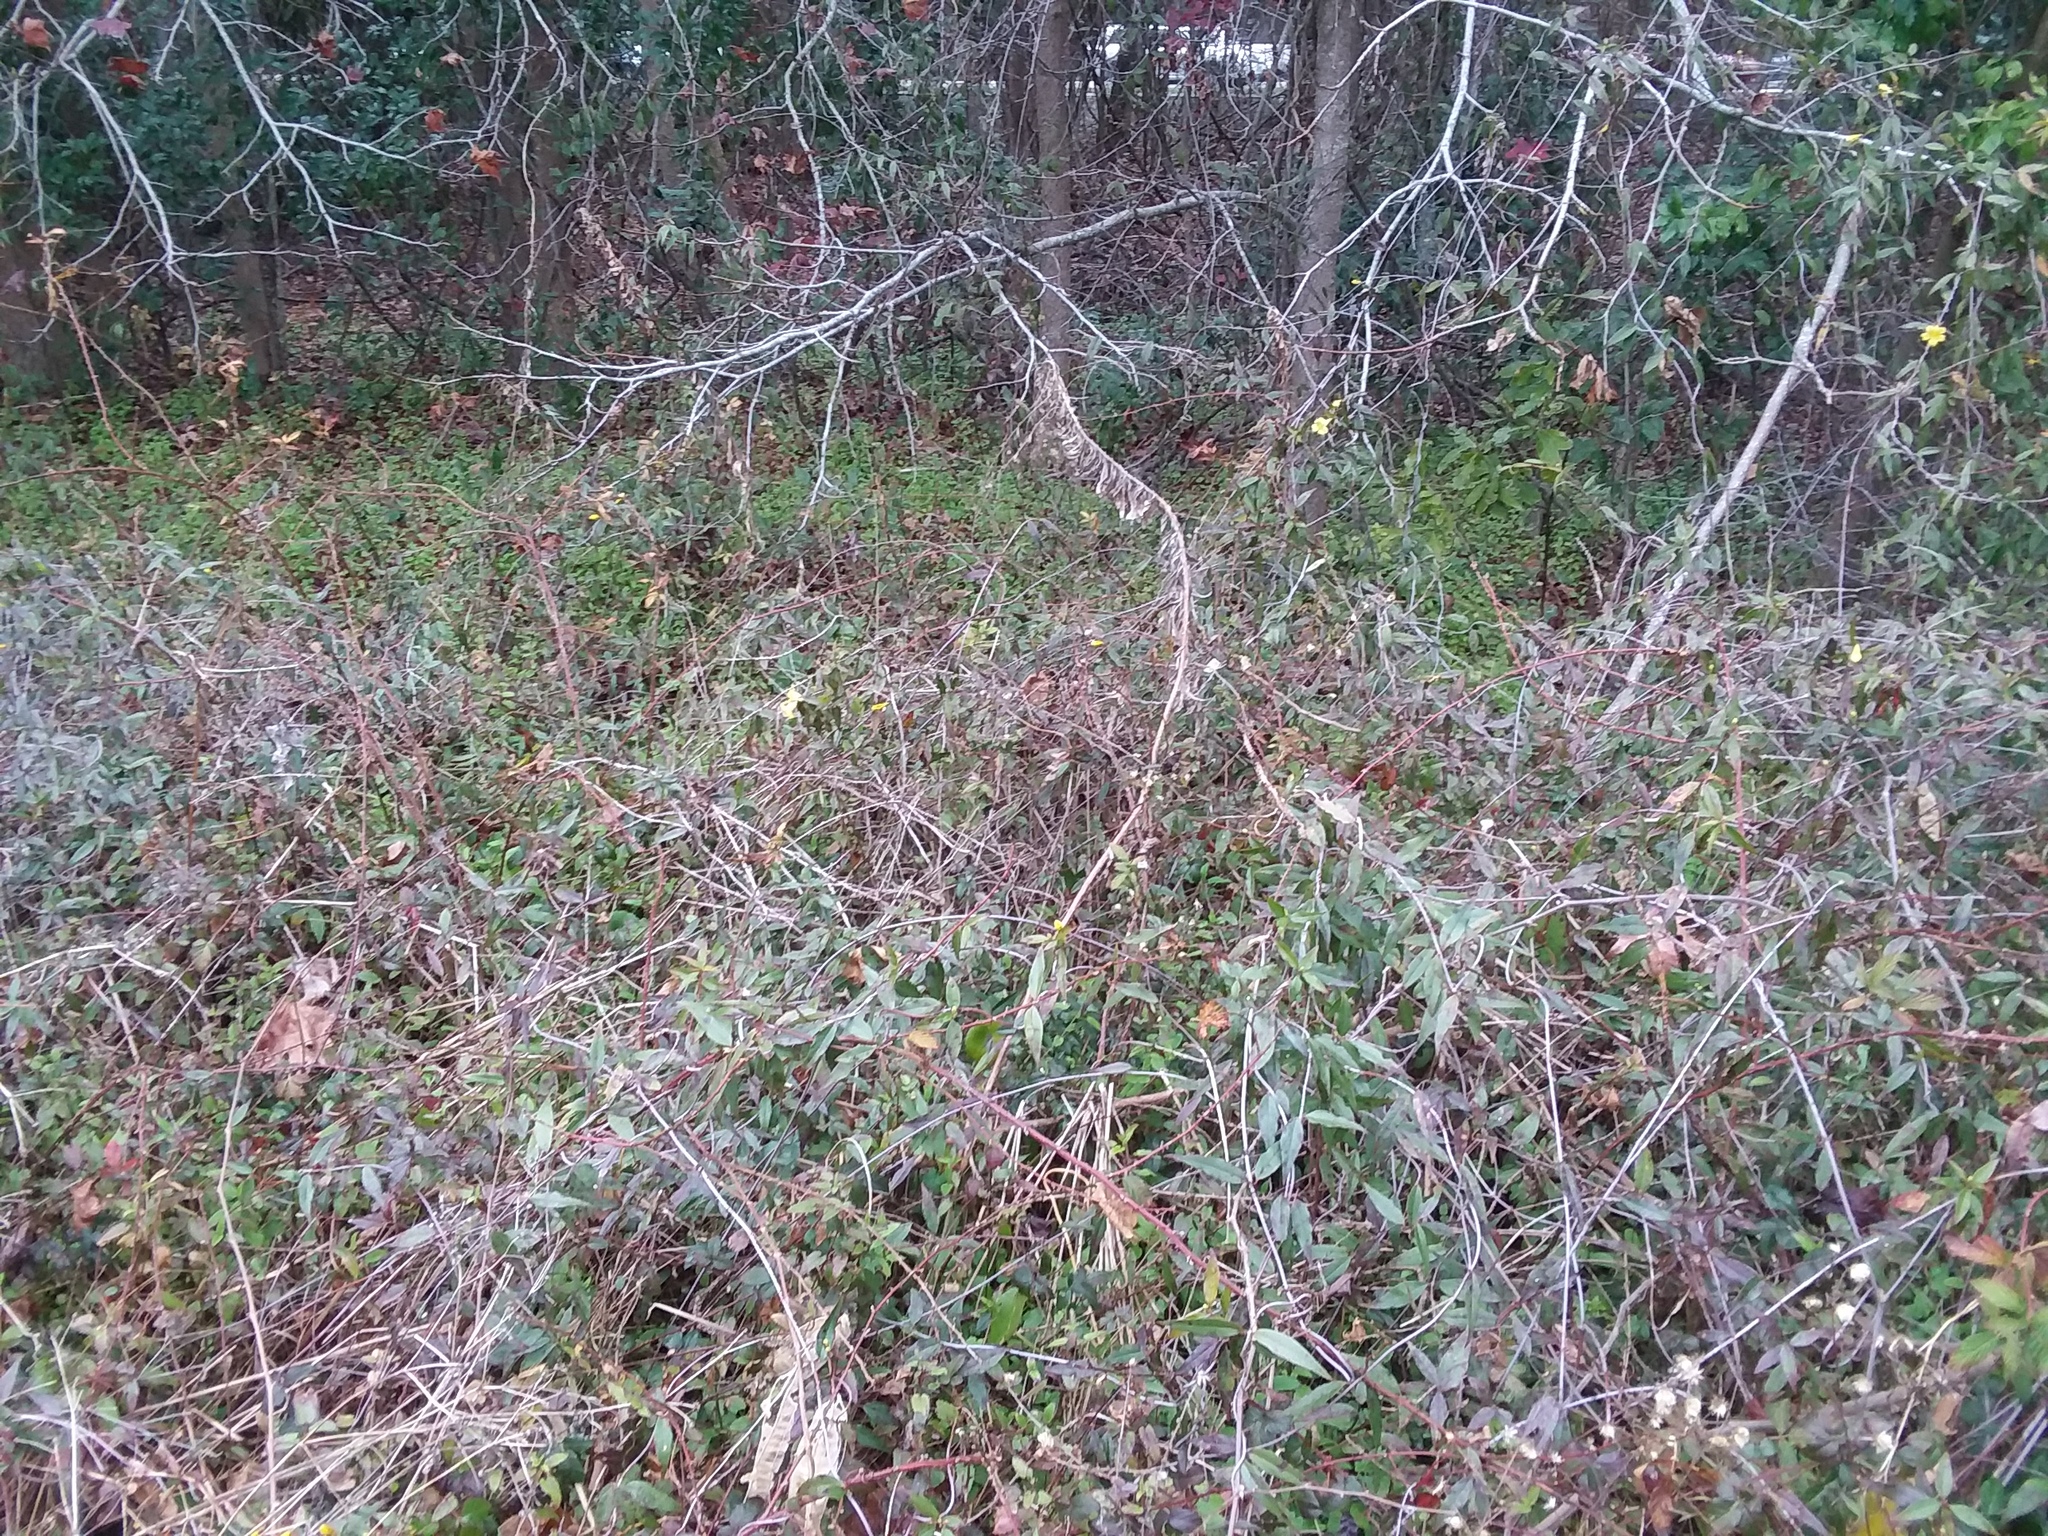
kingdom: Plantae
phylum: Tracheophyta
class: Magnoliopsida
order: Gentianales
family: Gelsemiaceae
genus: Gelsemium
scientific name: Gelsemium sempervirens
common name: Carolina-jasmine
